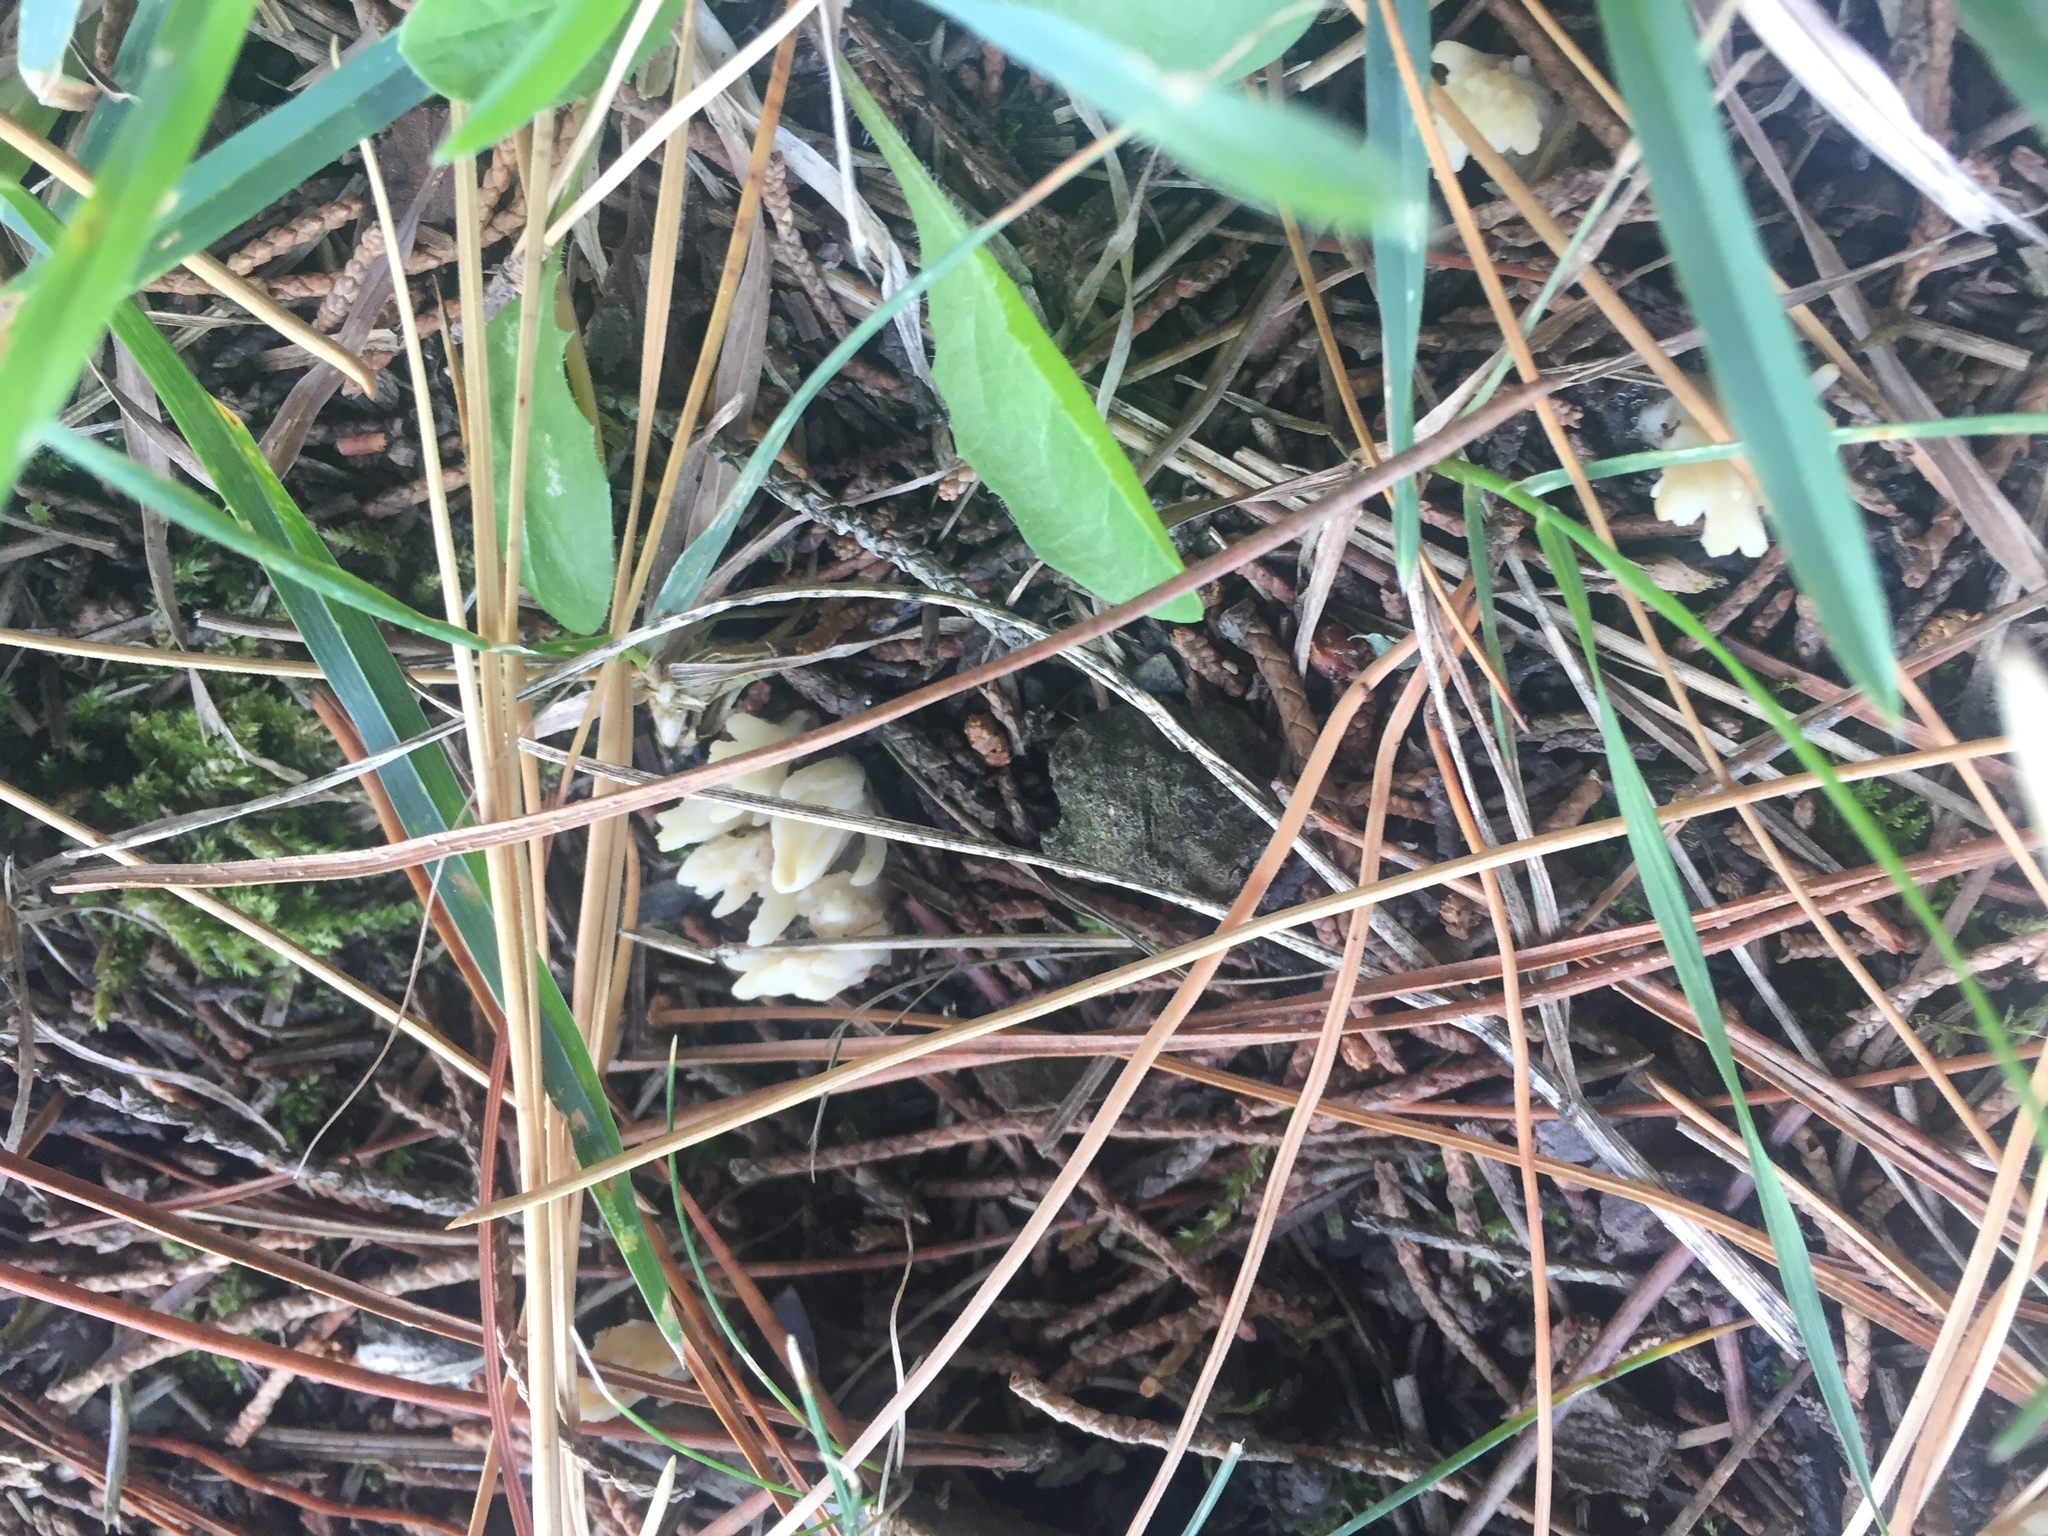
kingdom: Fungi
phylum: Basidiomycota
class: Agaricomycetes
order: Cantharellales
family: Hydnaceae
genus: Clavulina
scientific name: Clavulina rugosa
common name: Wrinkled club
